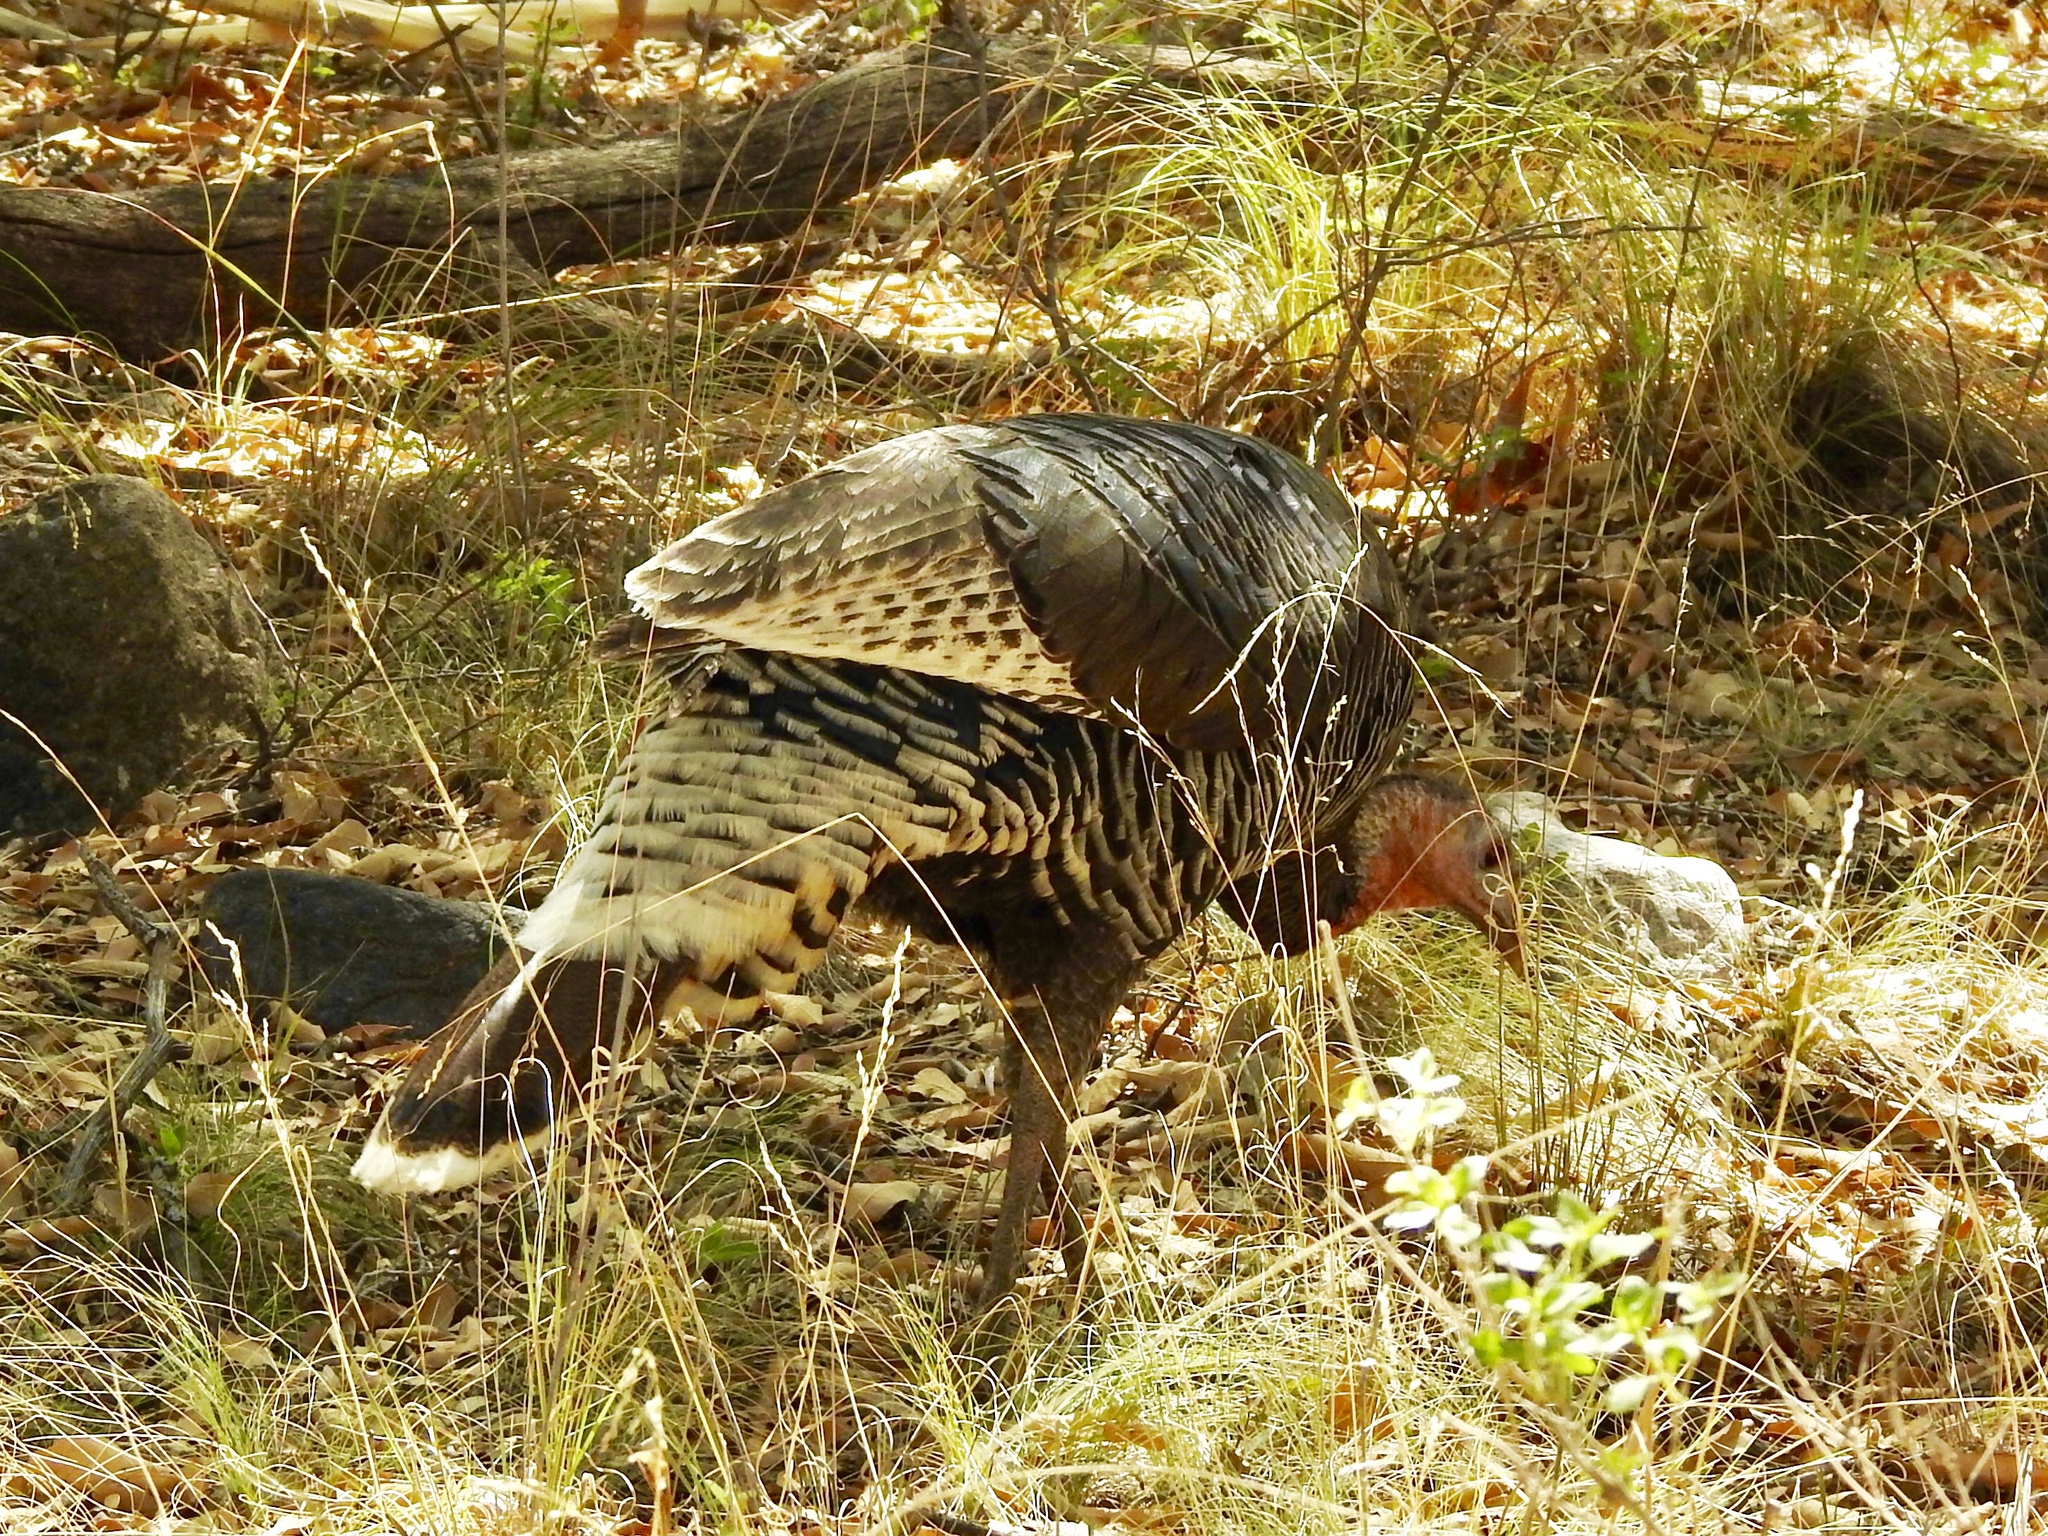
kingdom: Animalia
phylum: Chordata
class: Aves
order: Galliformes
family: Phasianidae
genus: Meleagris
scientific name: Meleagris gallopavo
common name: Wild turkey
